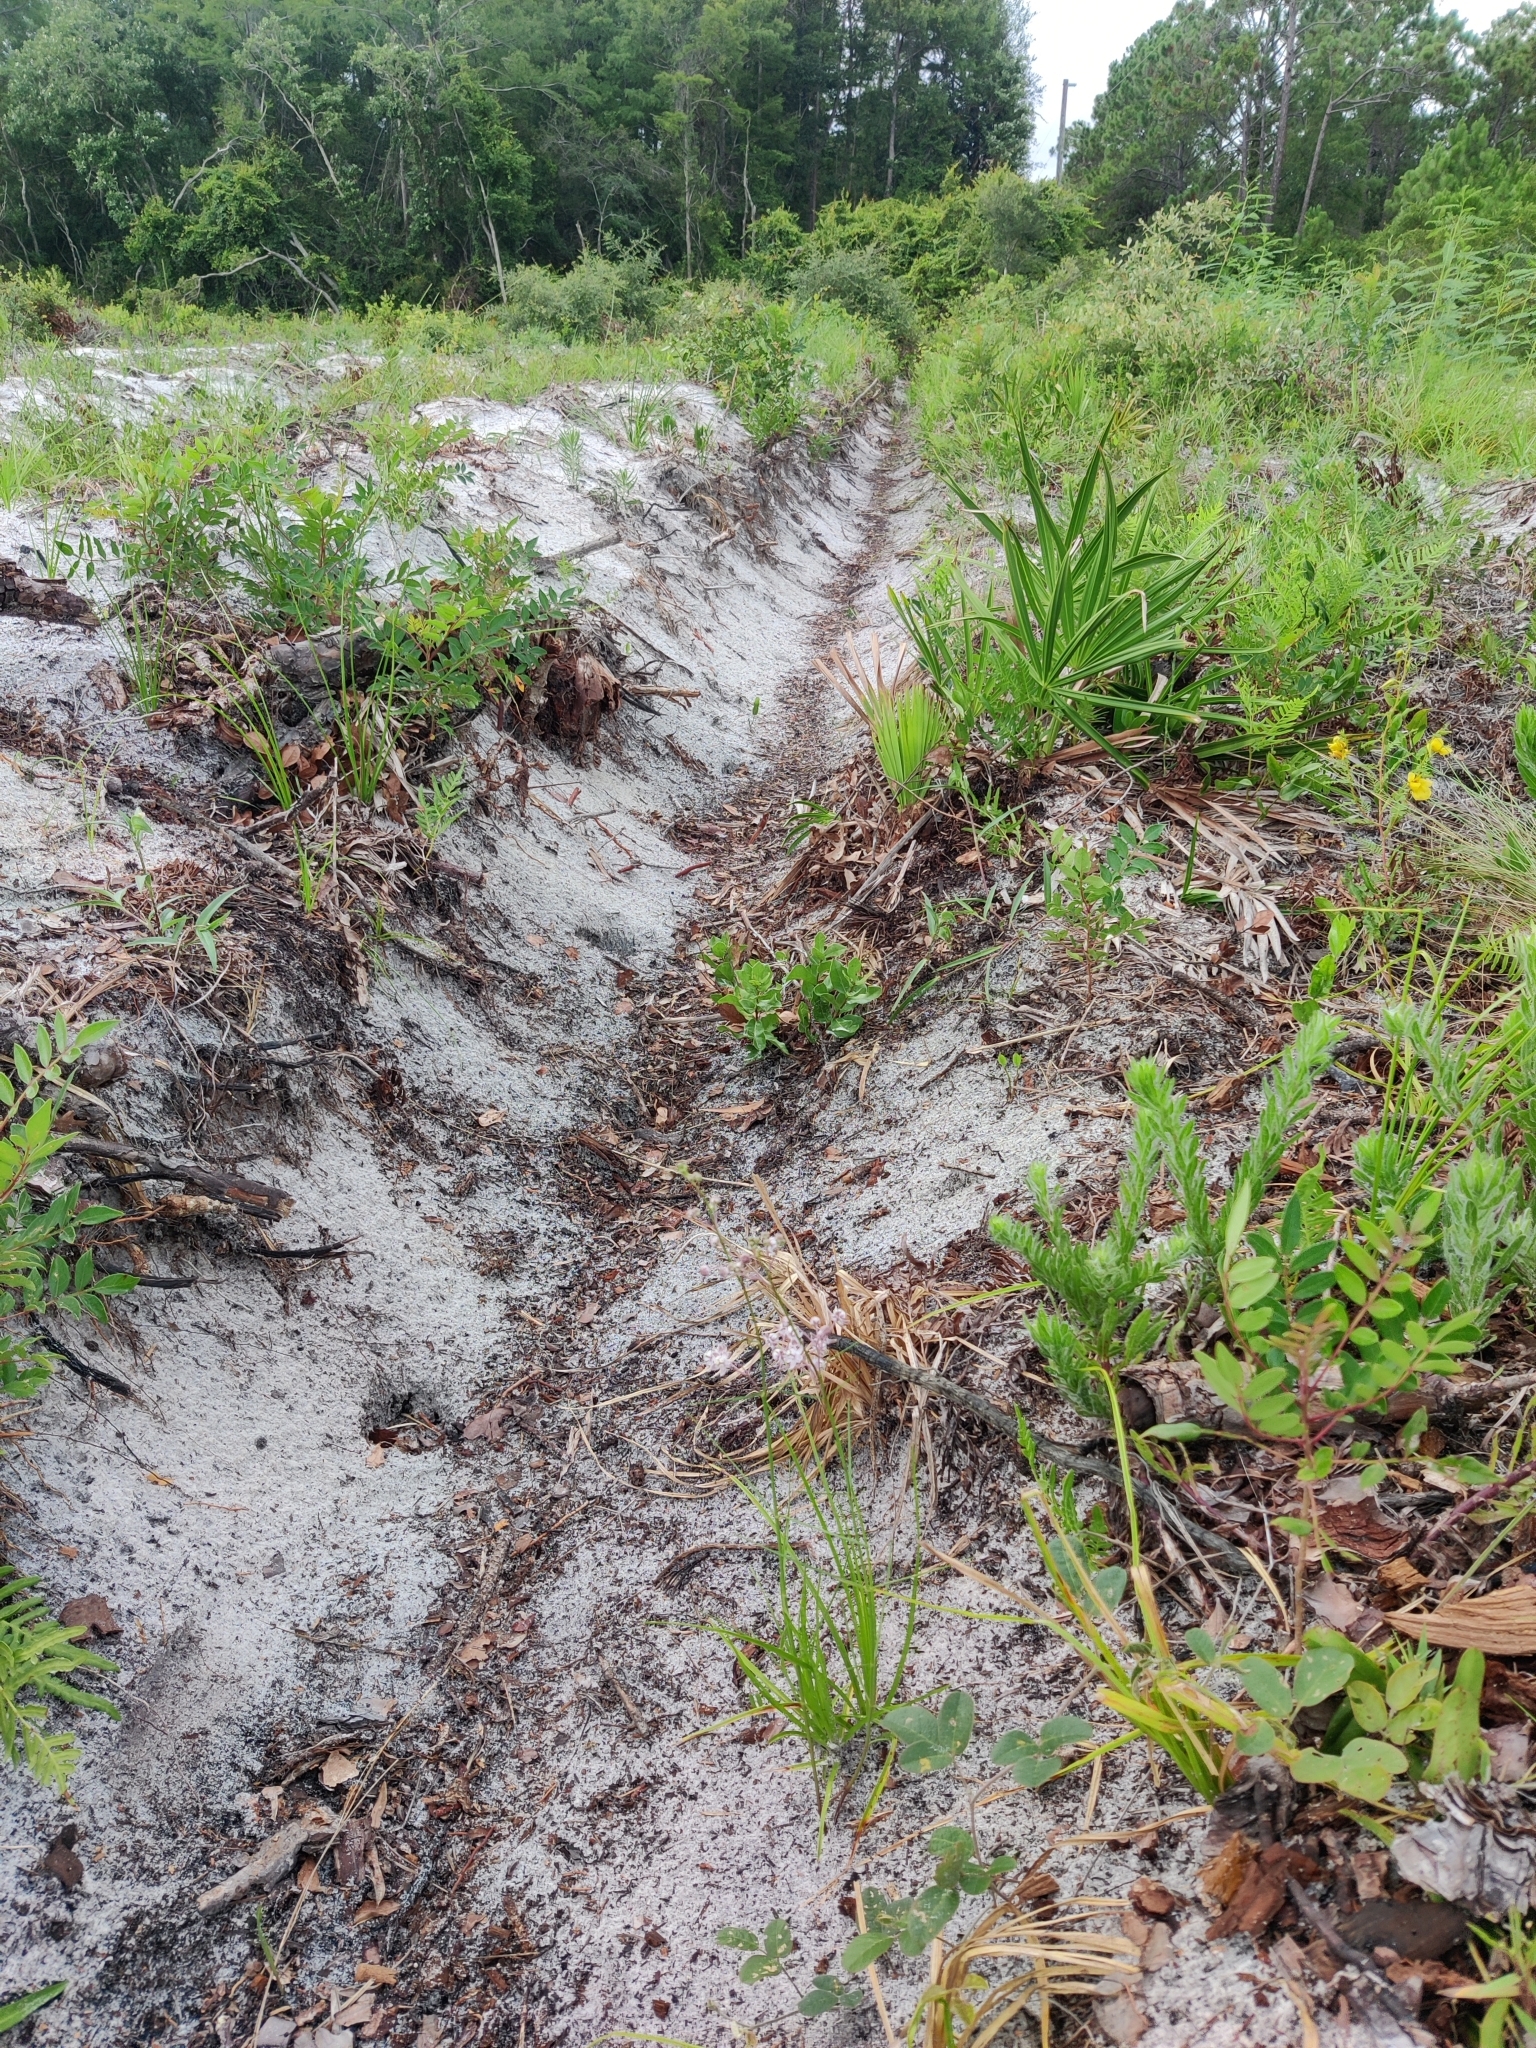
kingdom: Plantae
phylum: Tracheophyta
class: Magnoliopsida
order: Gentianales
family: Apocynaceae
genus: Asclepias
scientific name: Asclepias cinerea
